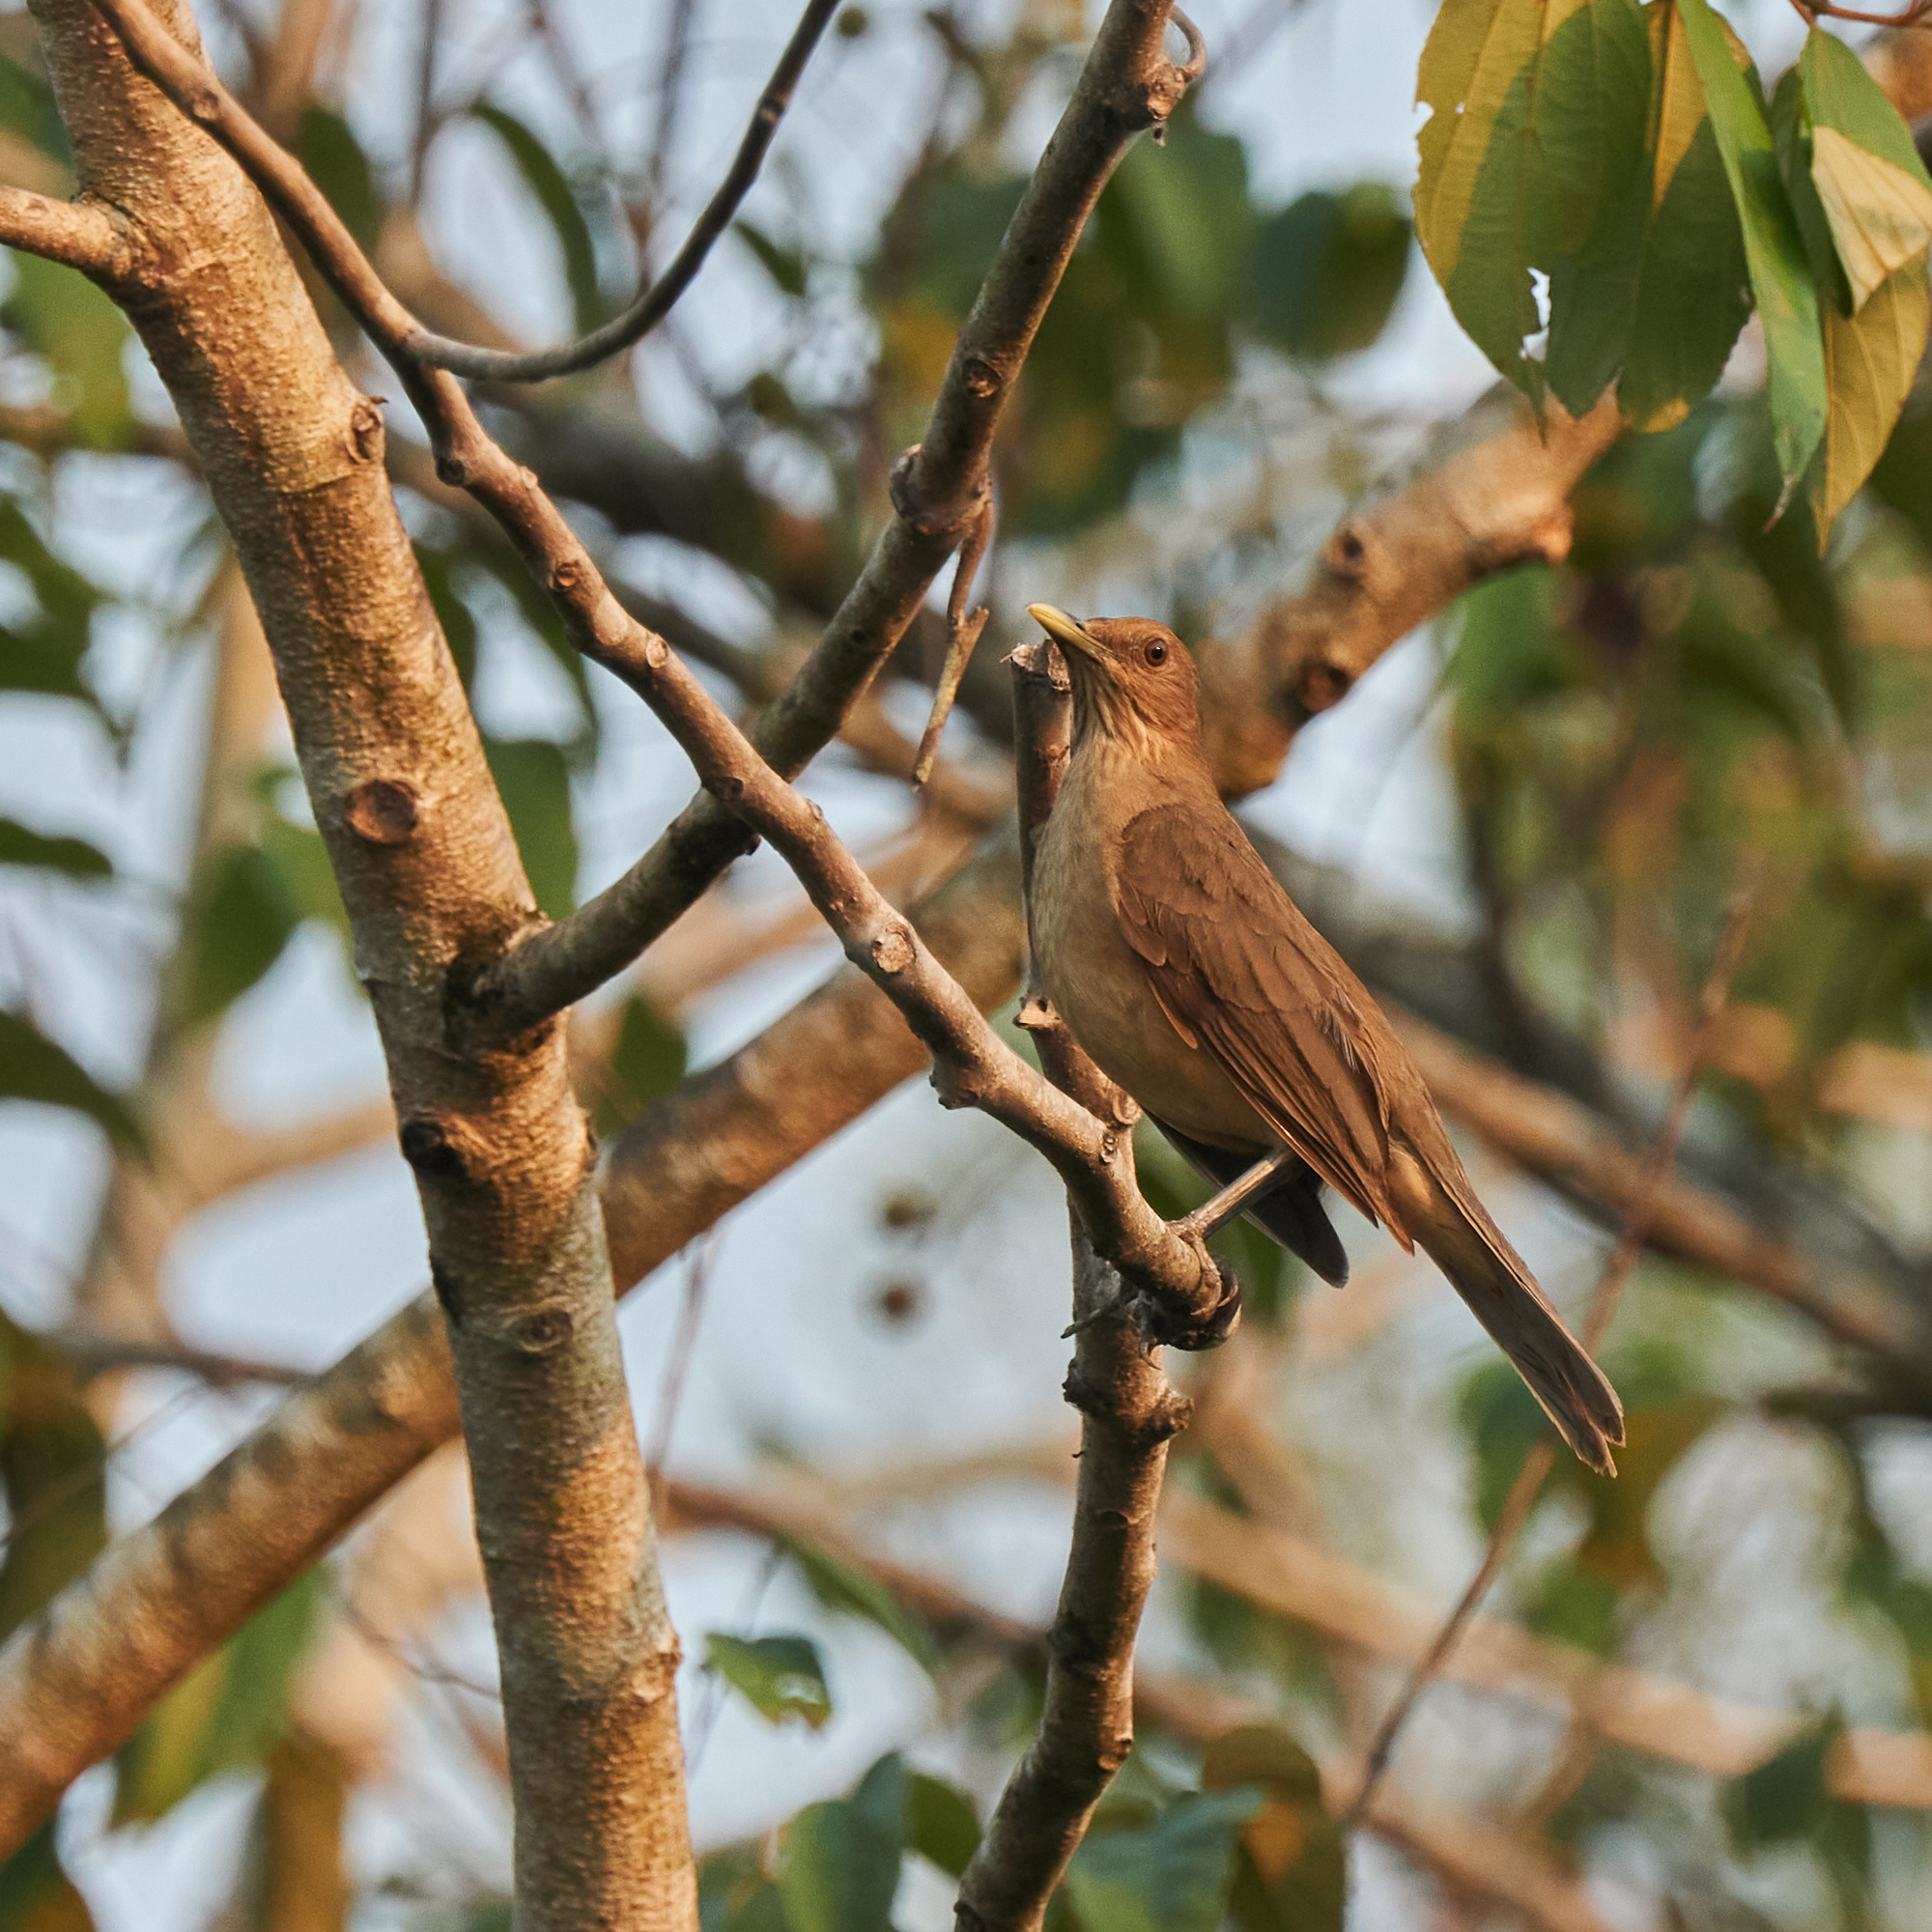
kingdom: Animalia
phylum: Chordata
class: Aves
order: Passeriformes
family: Turdidae
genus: Turdus
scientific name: Turdus grayi
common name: Clay-colored thrush
